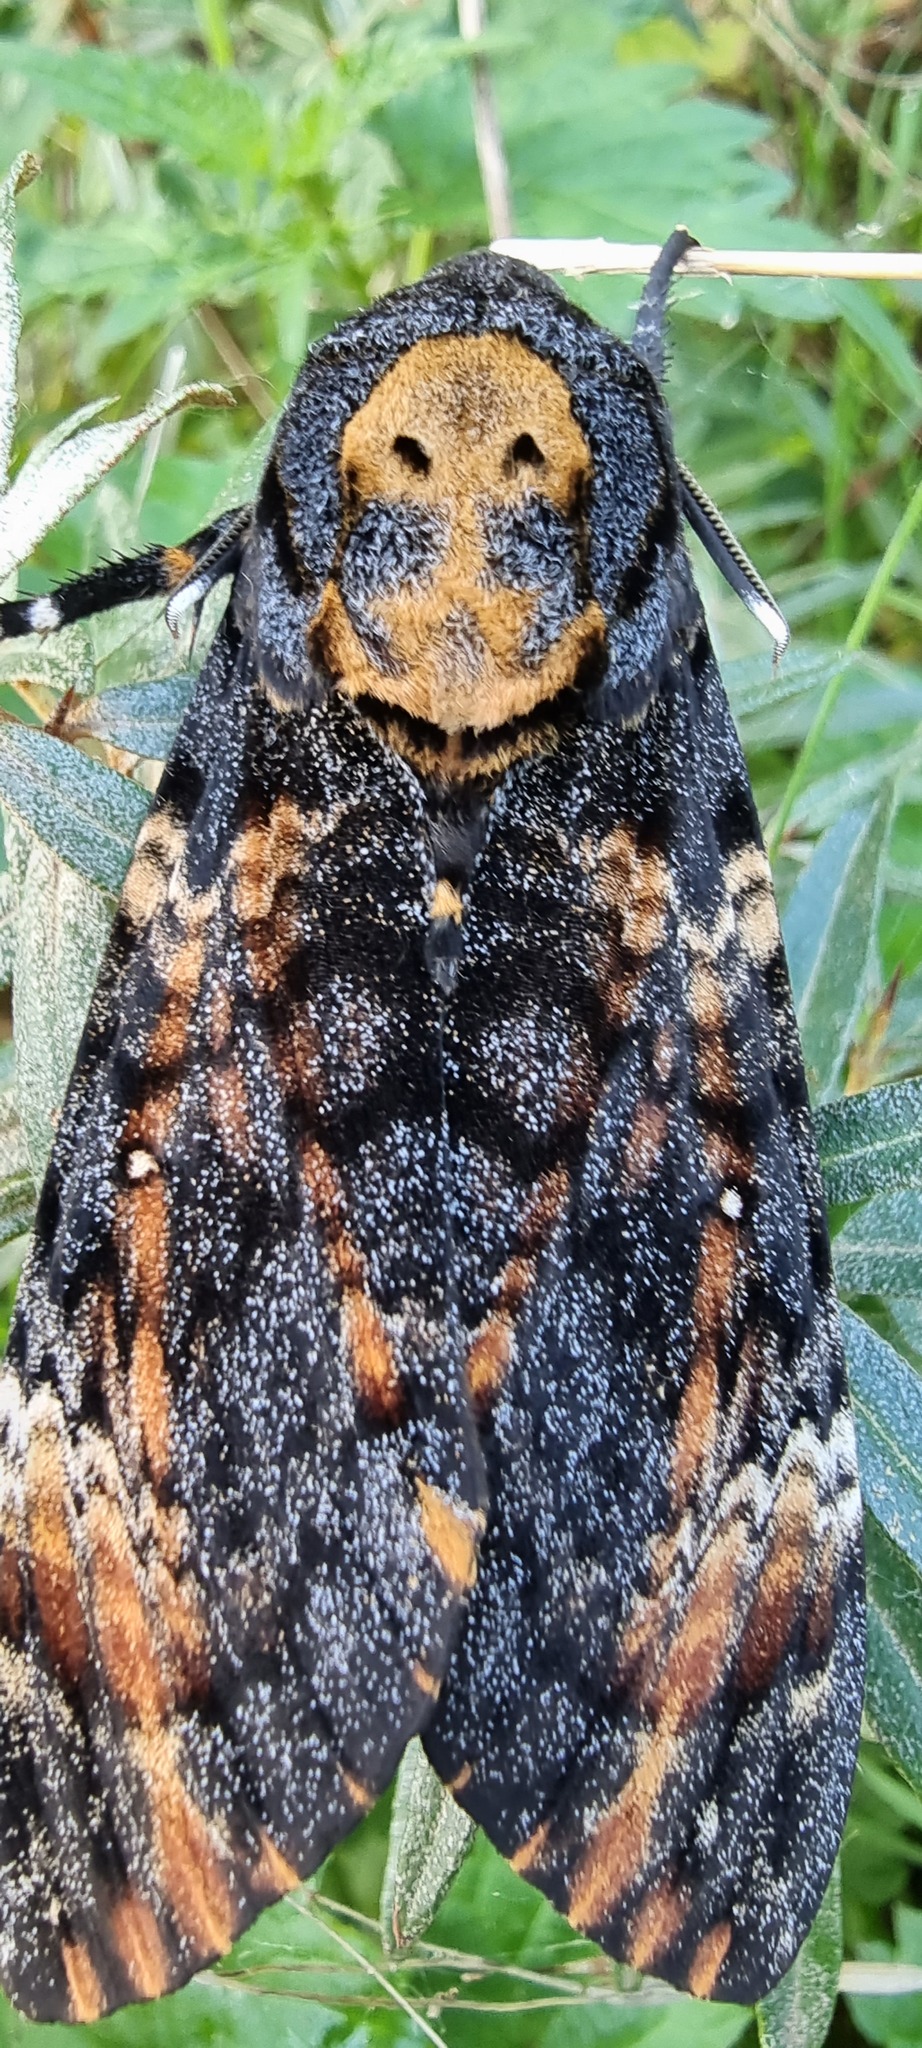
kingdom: Animalia
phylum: Arthropoda
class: Insecta
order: Lepidoptera
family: Sphingidae
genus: Acherontia
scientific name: Acherontia atropos
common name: Death's-head hawk moth
